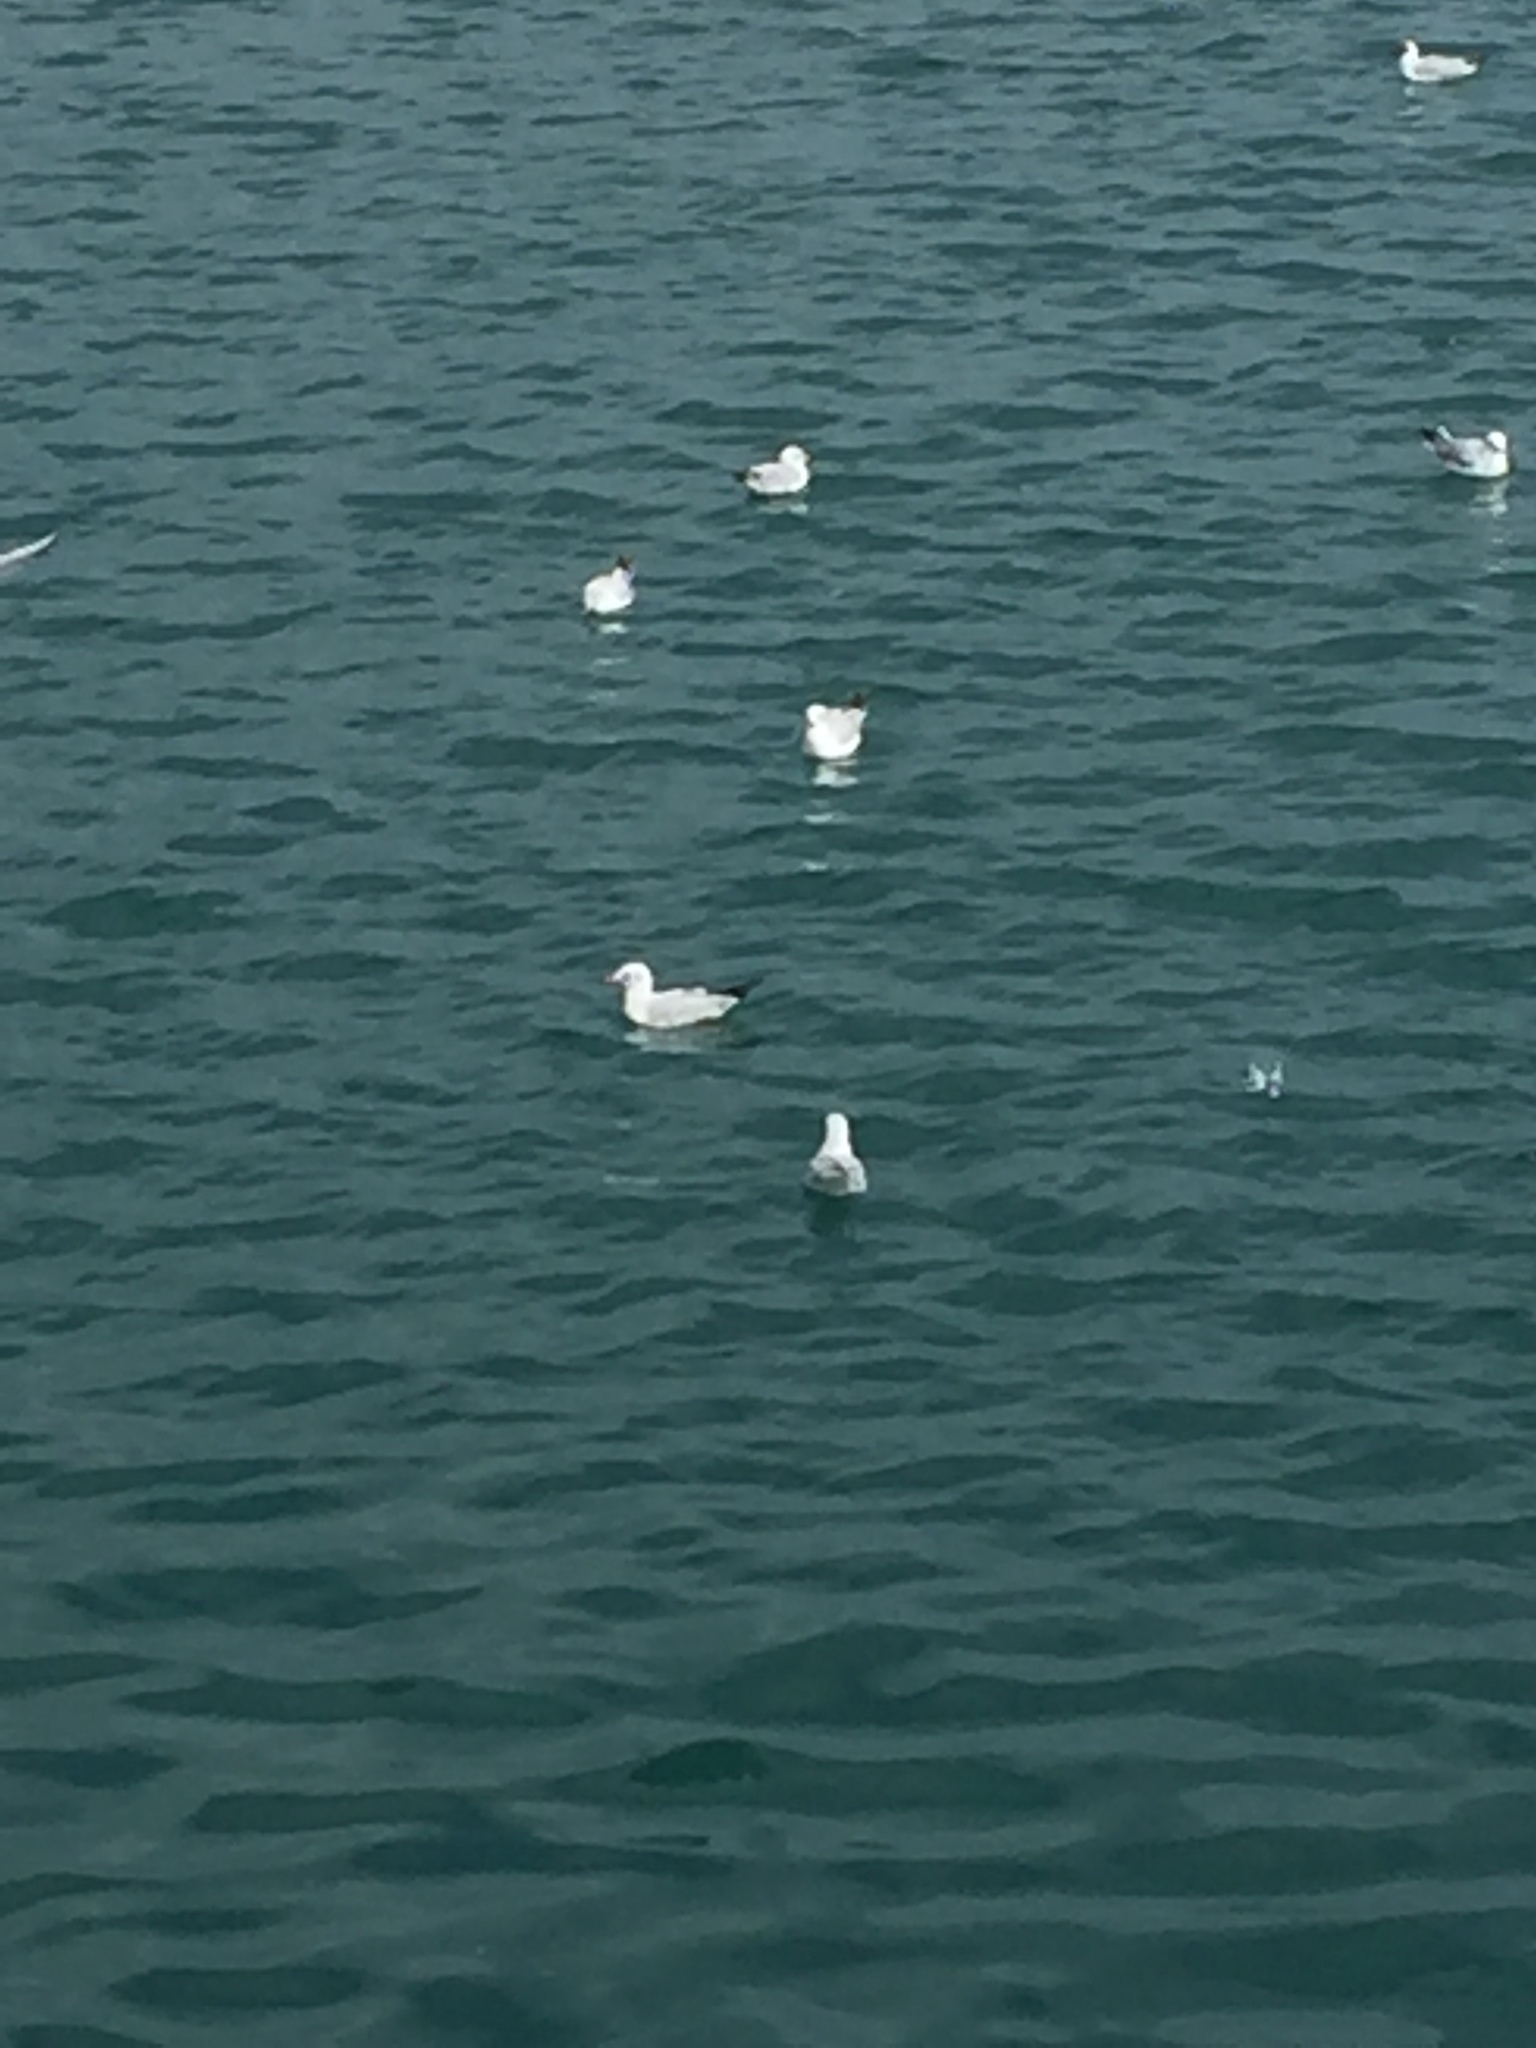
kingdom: Animalia
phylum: Chordata
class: Aves
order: Charadriiformes
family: Laridae
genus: Chroicocephalus
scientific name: Chroicocephalus ridibundus
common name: Black-headed gull
